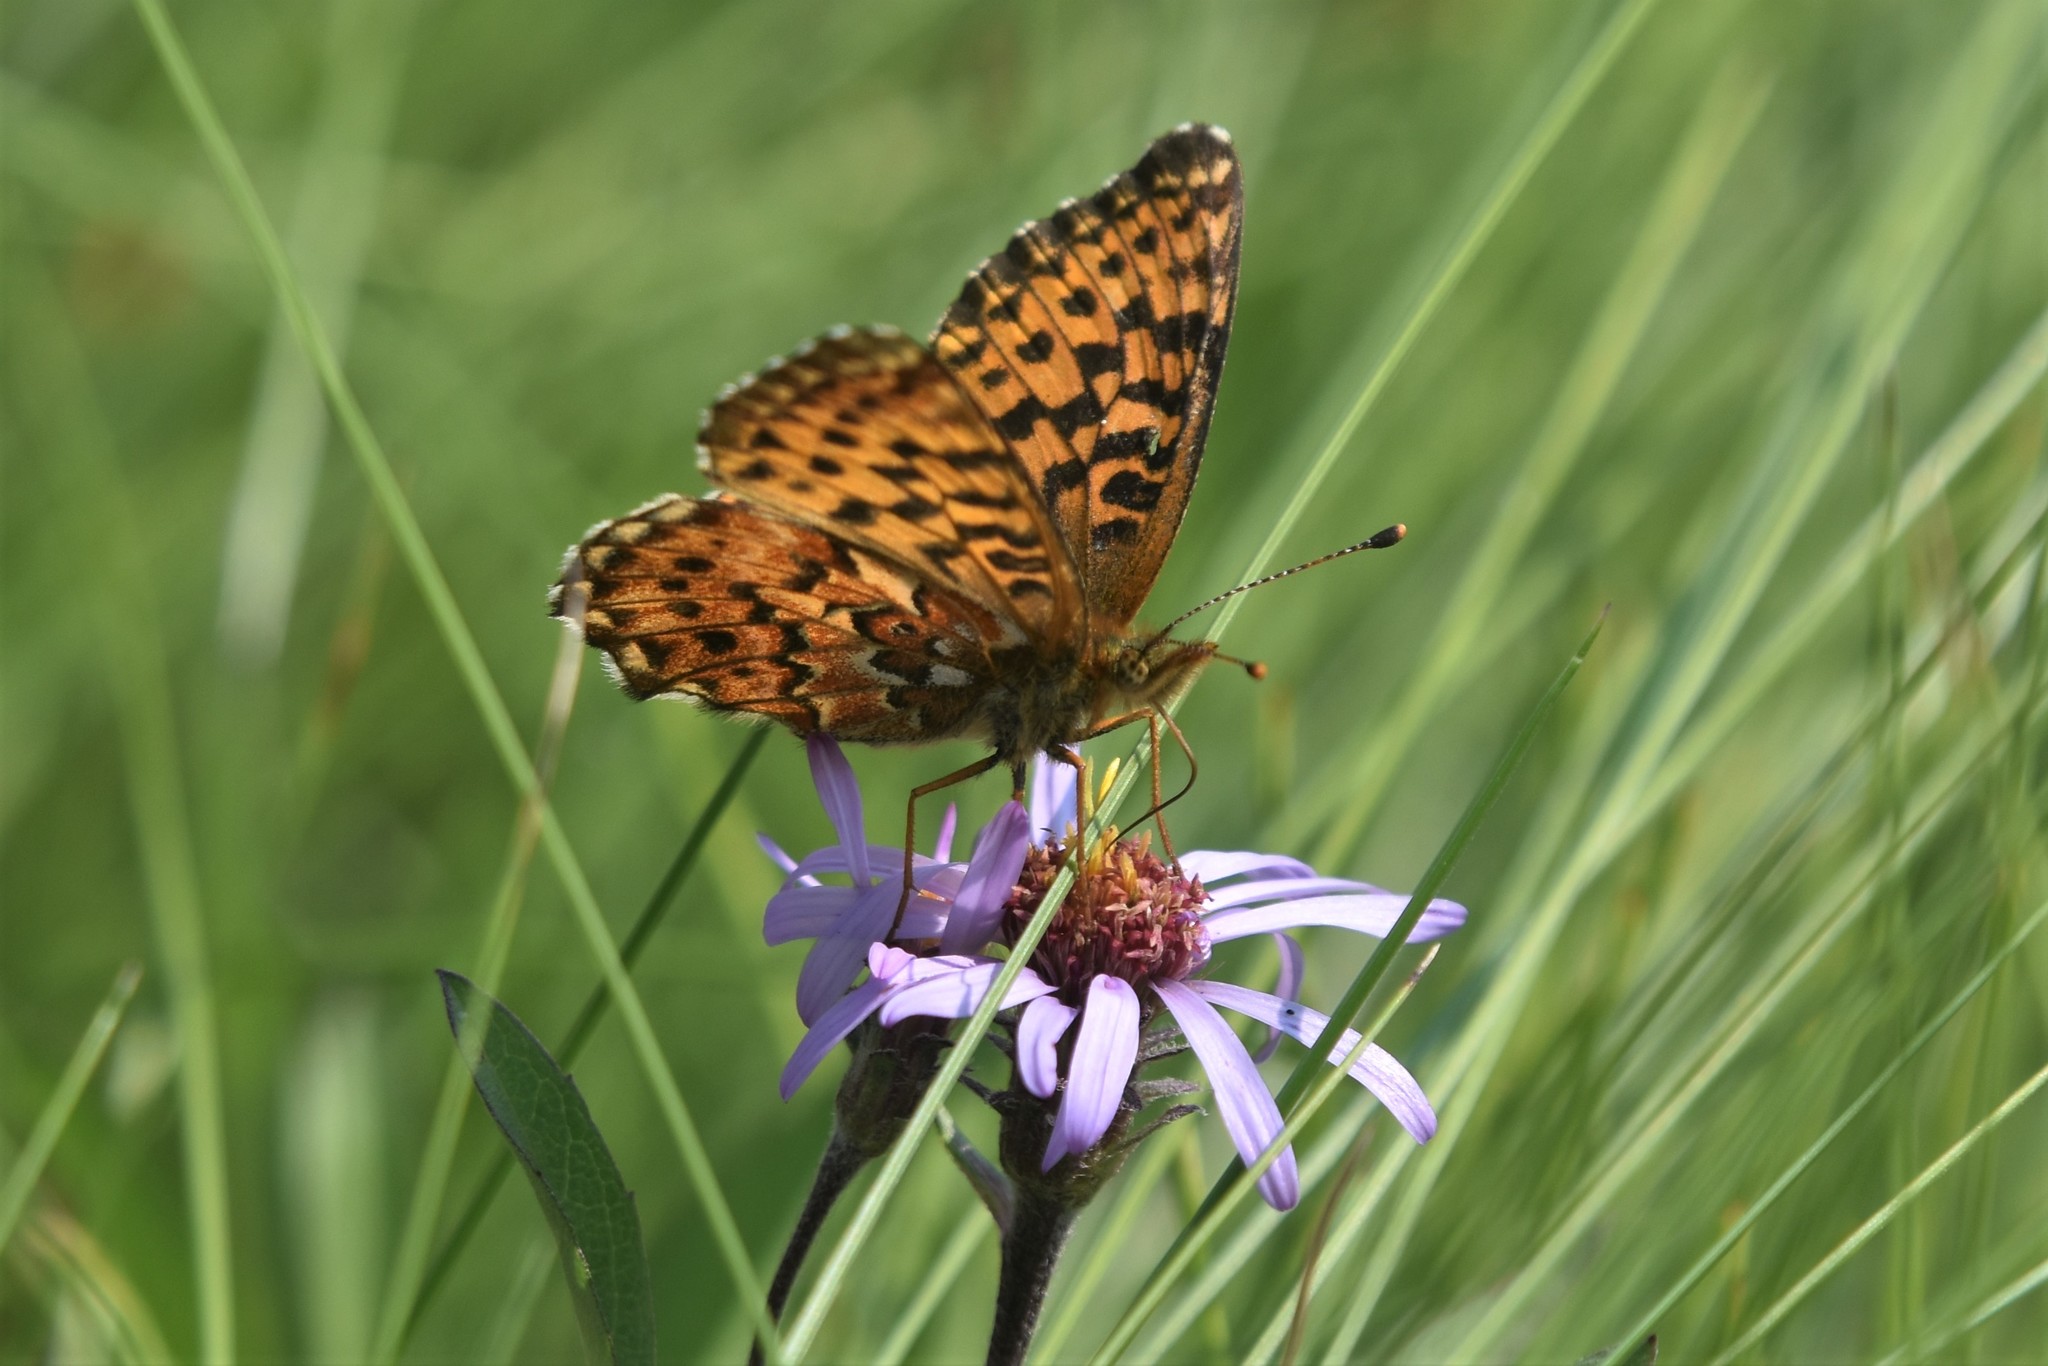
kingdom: Animalia
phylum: Arthropoda
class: Insecta
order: Lepidoptera
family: Nymphalidae
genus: Boloria
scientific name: Boloria chariclea
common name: Arctic fritillary
